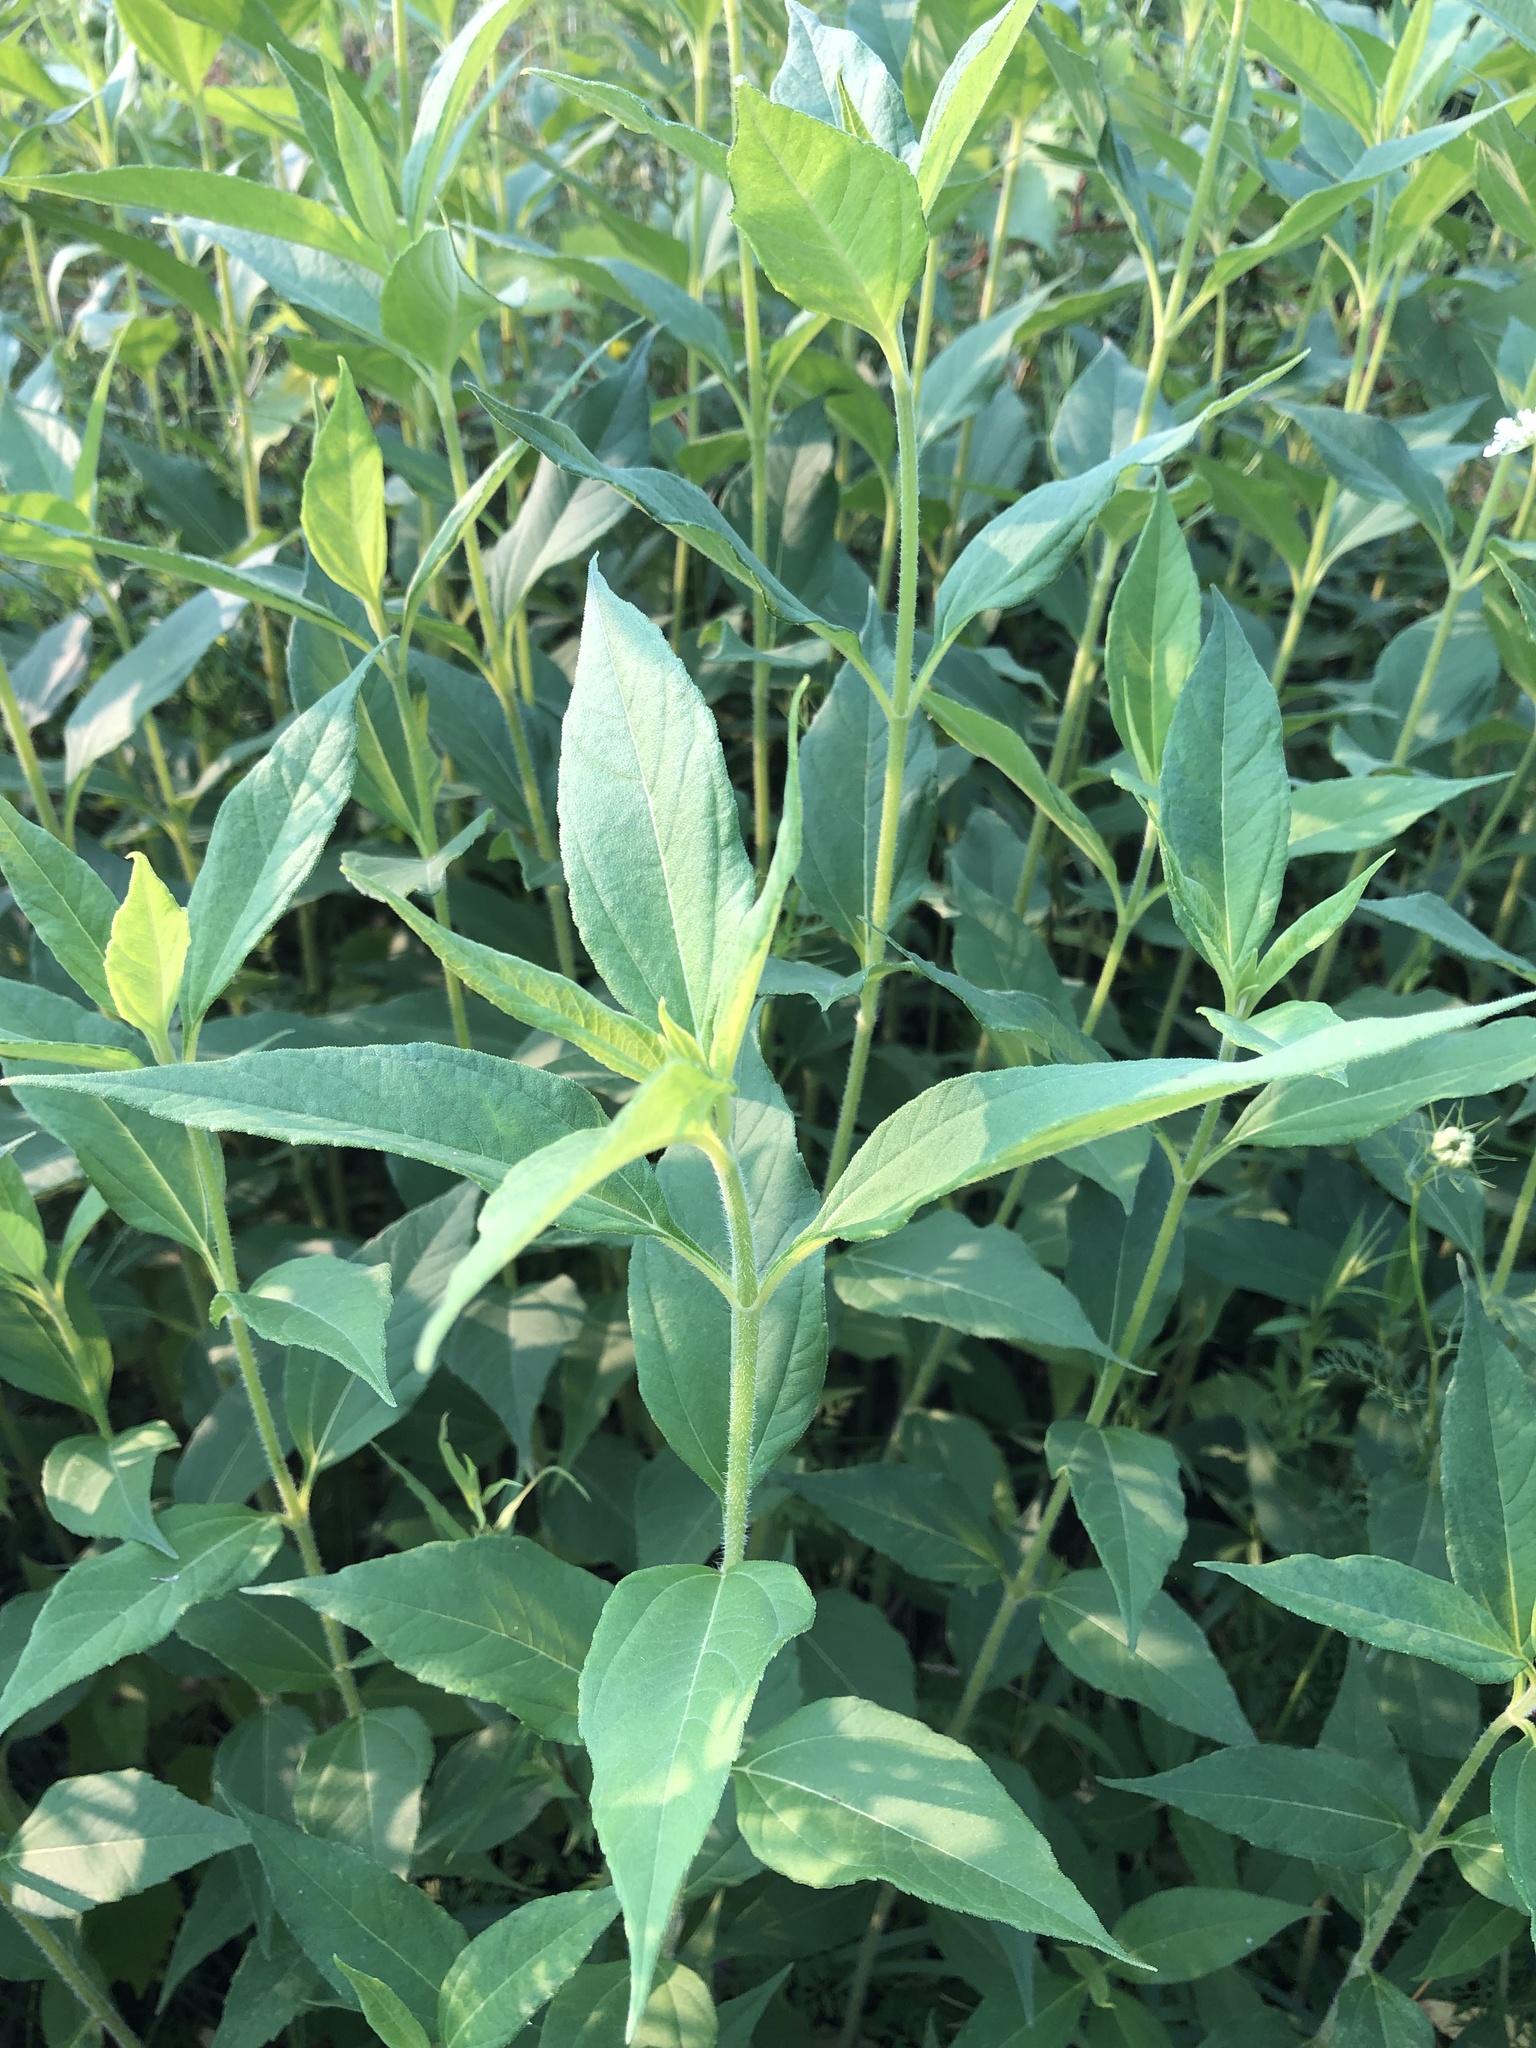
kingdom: Plantae
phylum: Tracheophyta
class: Magnoliopsida
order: Asterales
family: Asteraceae
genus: Helianthus
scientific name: Helianthus tuberosus
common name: Jerusalem artichoke
